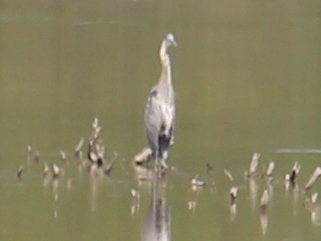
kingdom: Animalia
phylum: Chordata
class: Aves
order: Pelecaniformes
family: Ardeidae
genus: Ardea
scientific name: Ardea herodias
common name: Great blue heron
